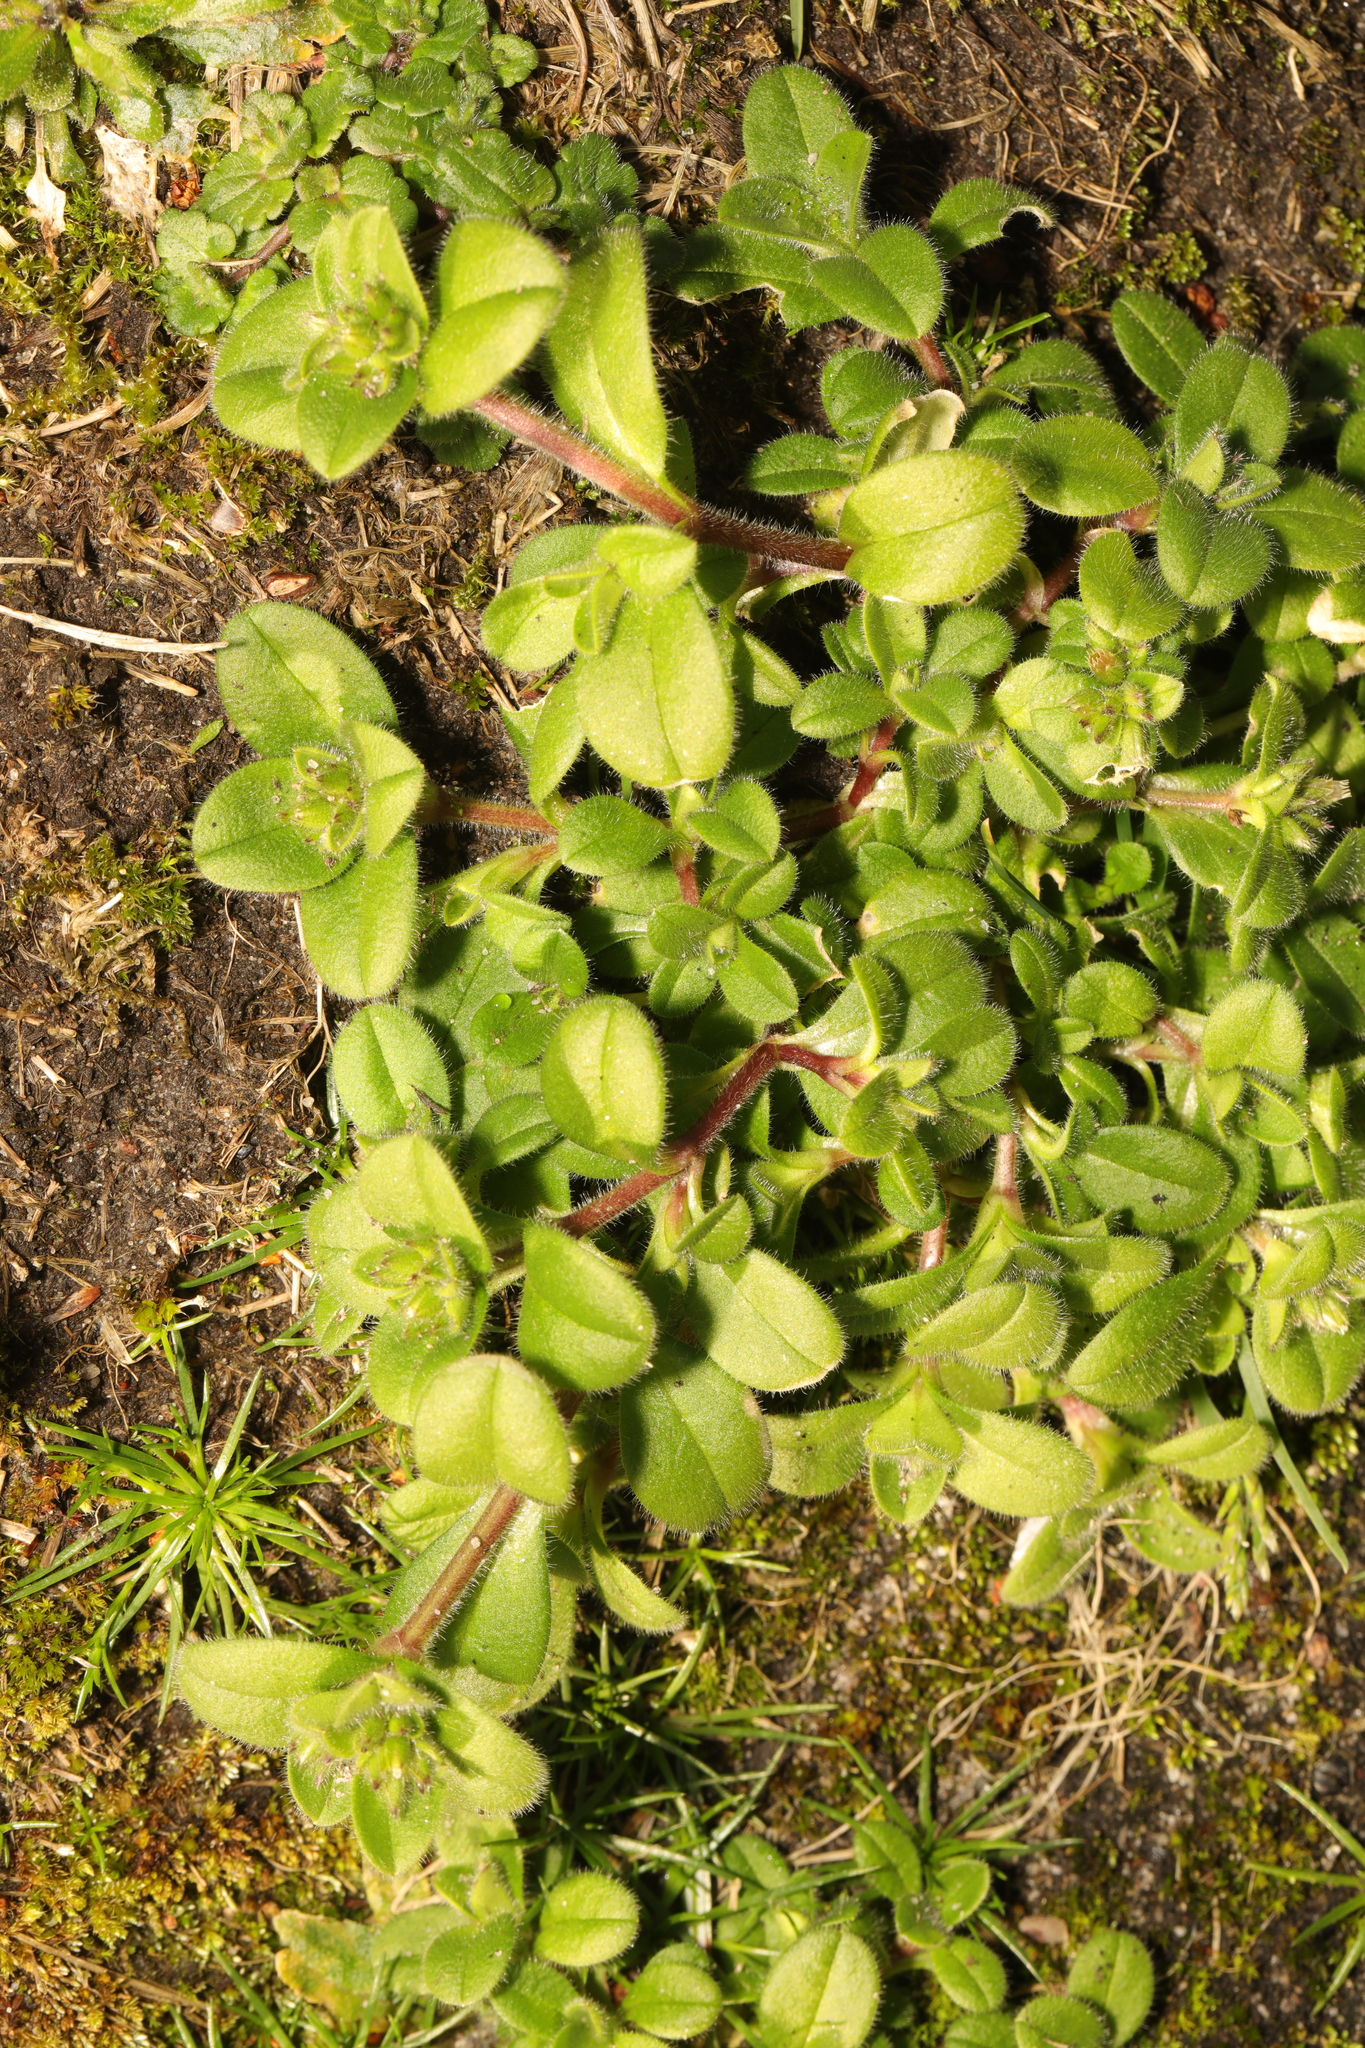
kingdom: Plantae
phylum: Tracheophyta
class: Magnoliopsida
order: Caryophyllales
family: Caryophyllaceae
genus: Cerastium
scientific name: Cerastium glomeratum
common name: Sticky chickweed
